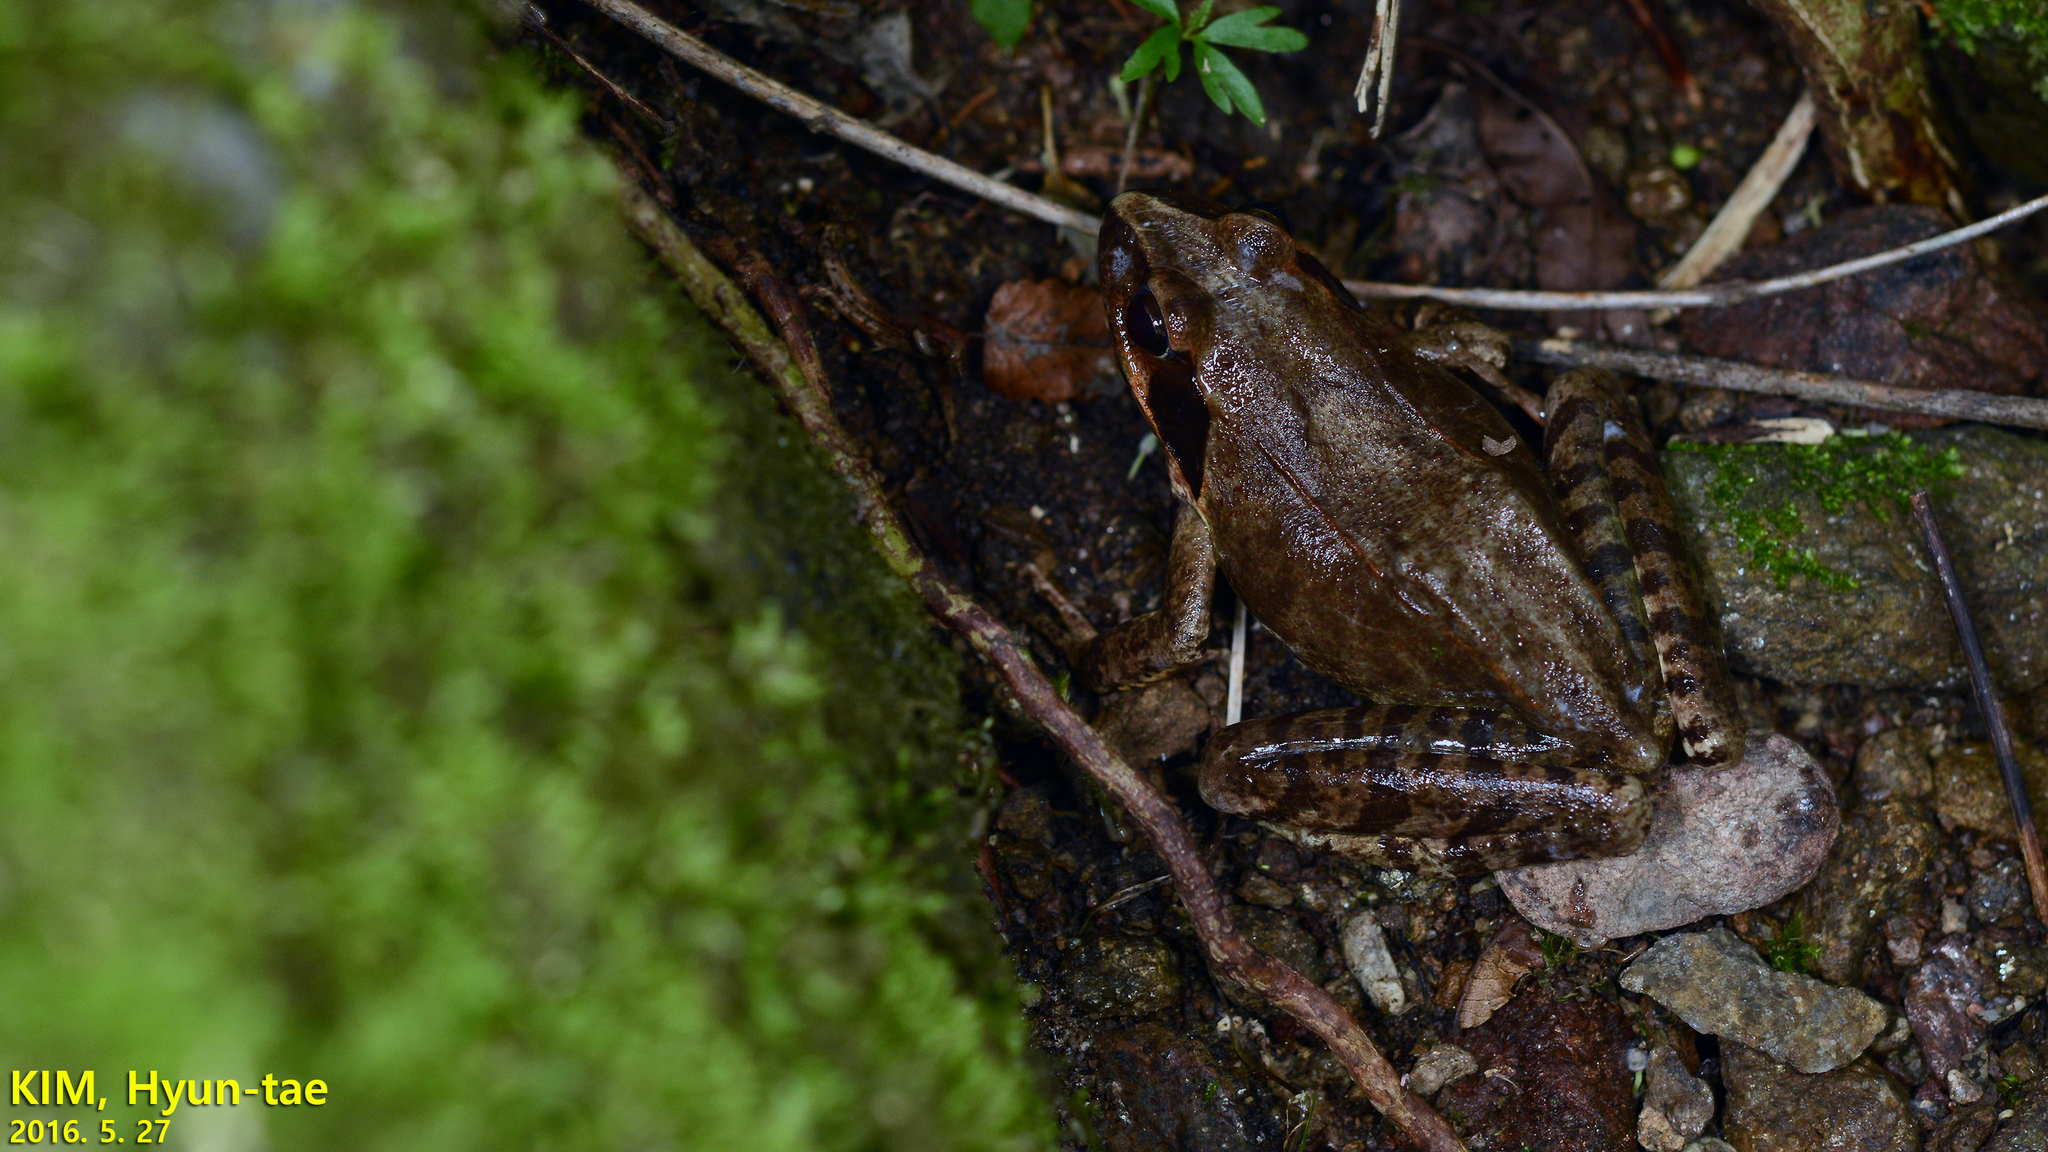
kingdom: Animalia
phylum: Chordata
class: Amphibia
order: Anura
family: Ranidae
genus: Rana
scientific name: Rana uenoi
